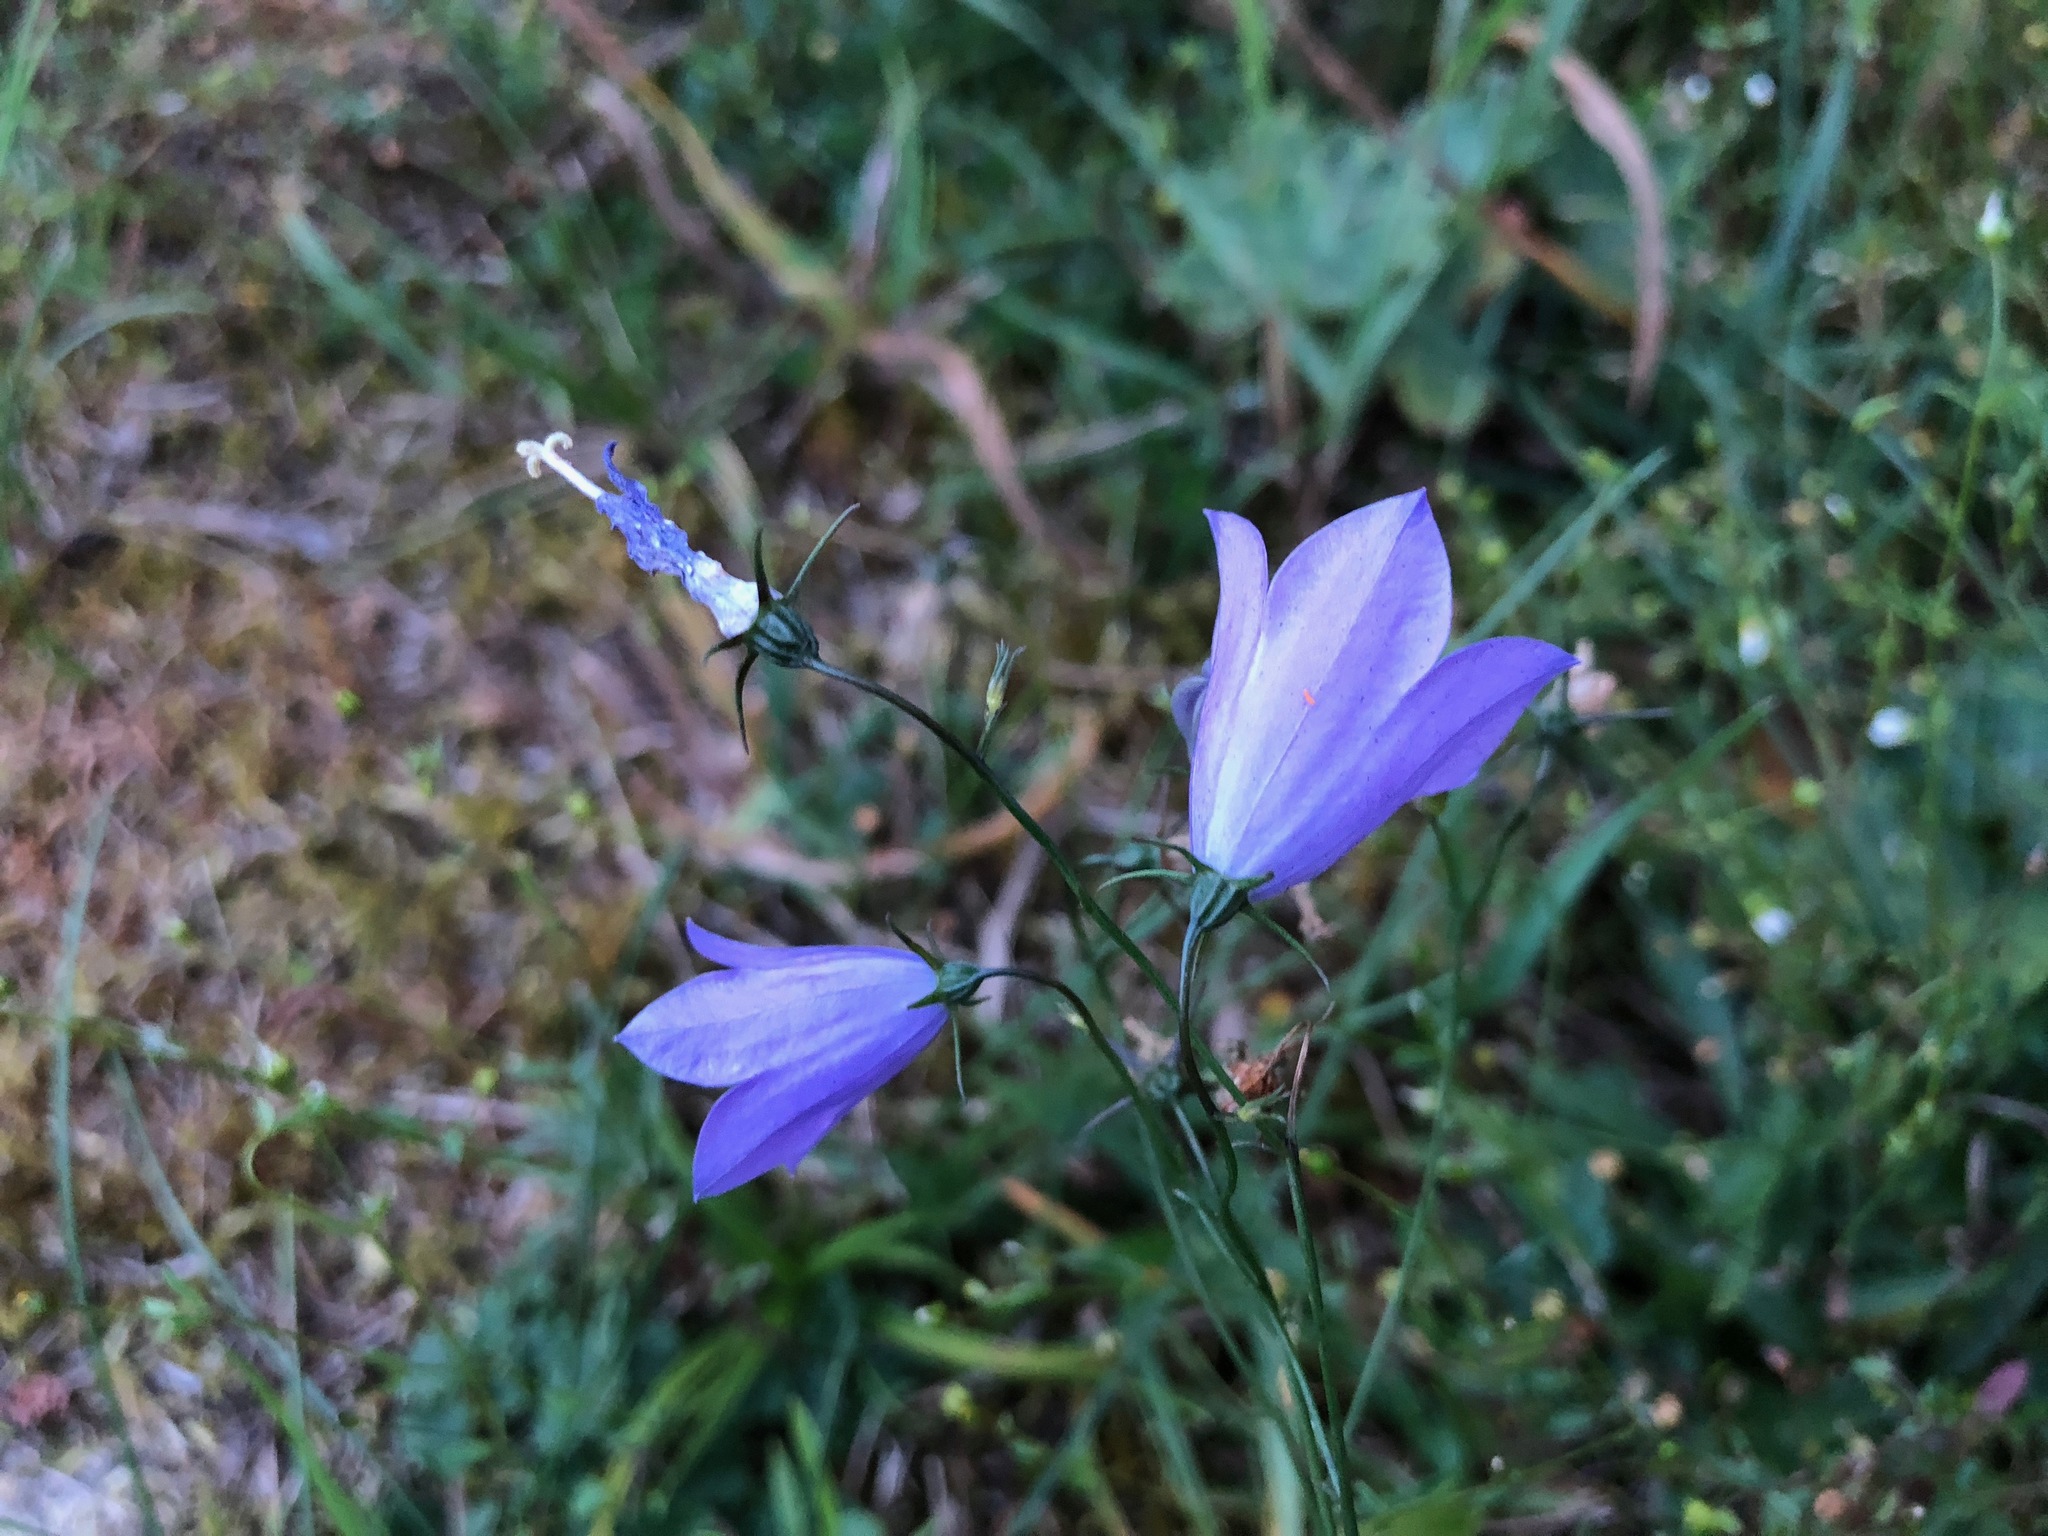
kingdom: Plantae
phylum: Tracheophyta
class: Magnoliopsida
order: Asterales
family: Campanulaceae
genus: Campanula
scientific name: Campanula rotundifolia
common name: Harebell
